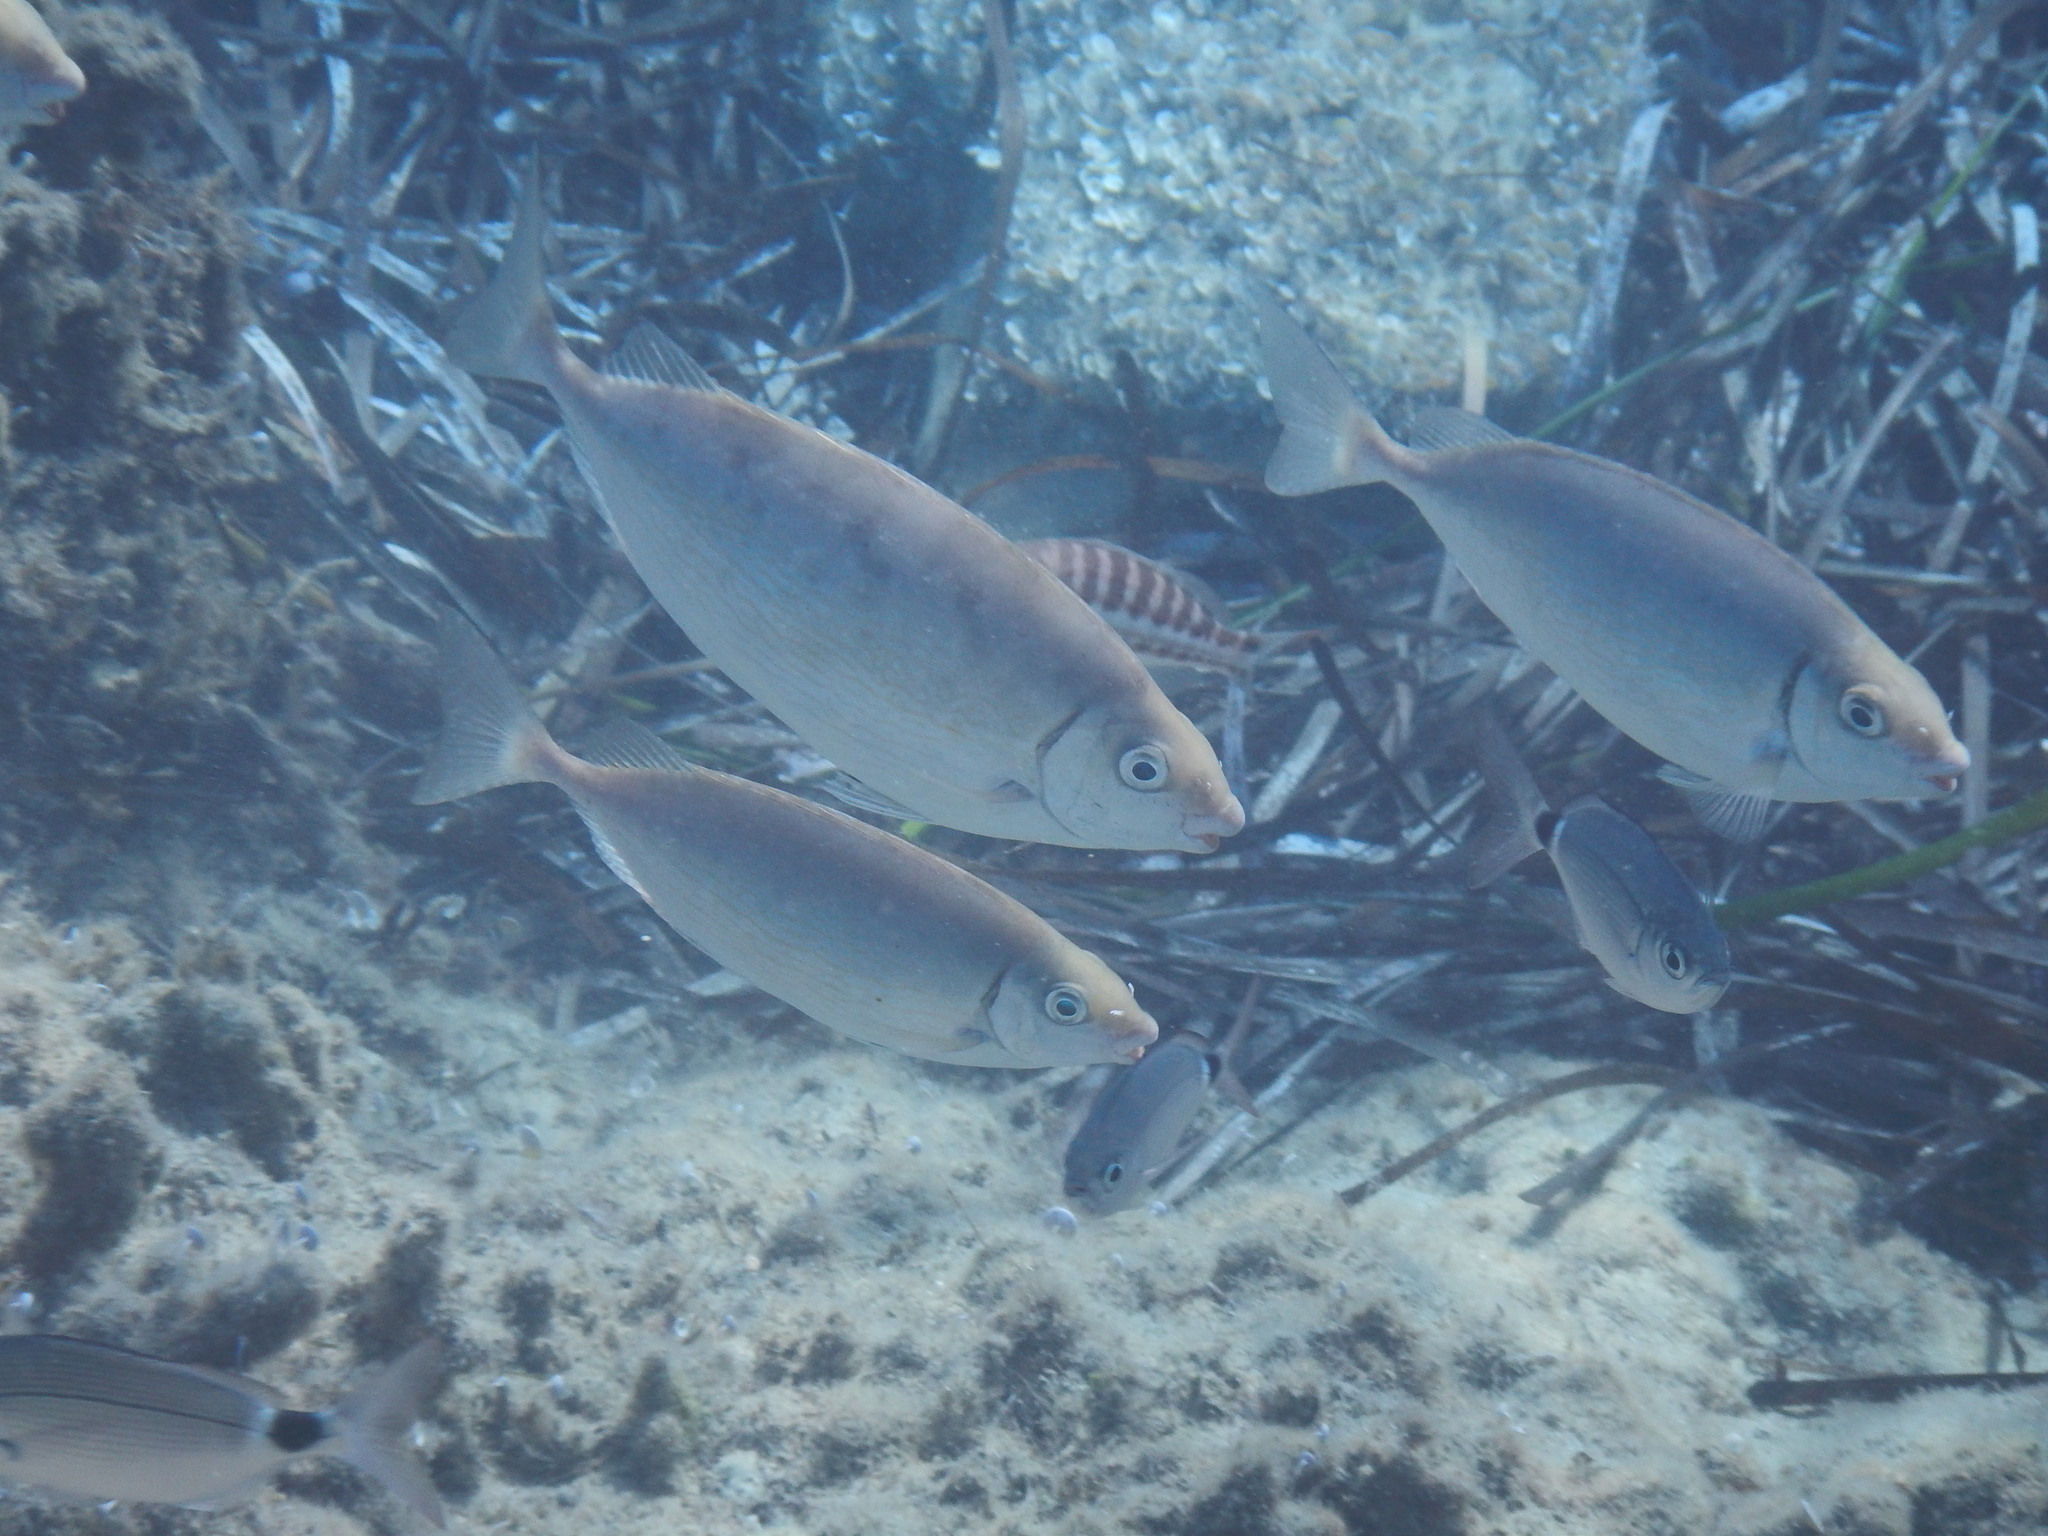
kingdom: Animalia
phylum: Chordata
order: Perciformes
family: Siganidae
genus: Siganus
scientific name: Siganus rivulatus
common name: Marbled spinefoot
